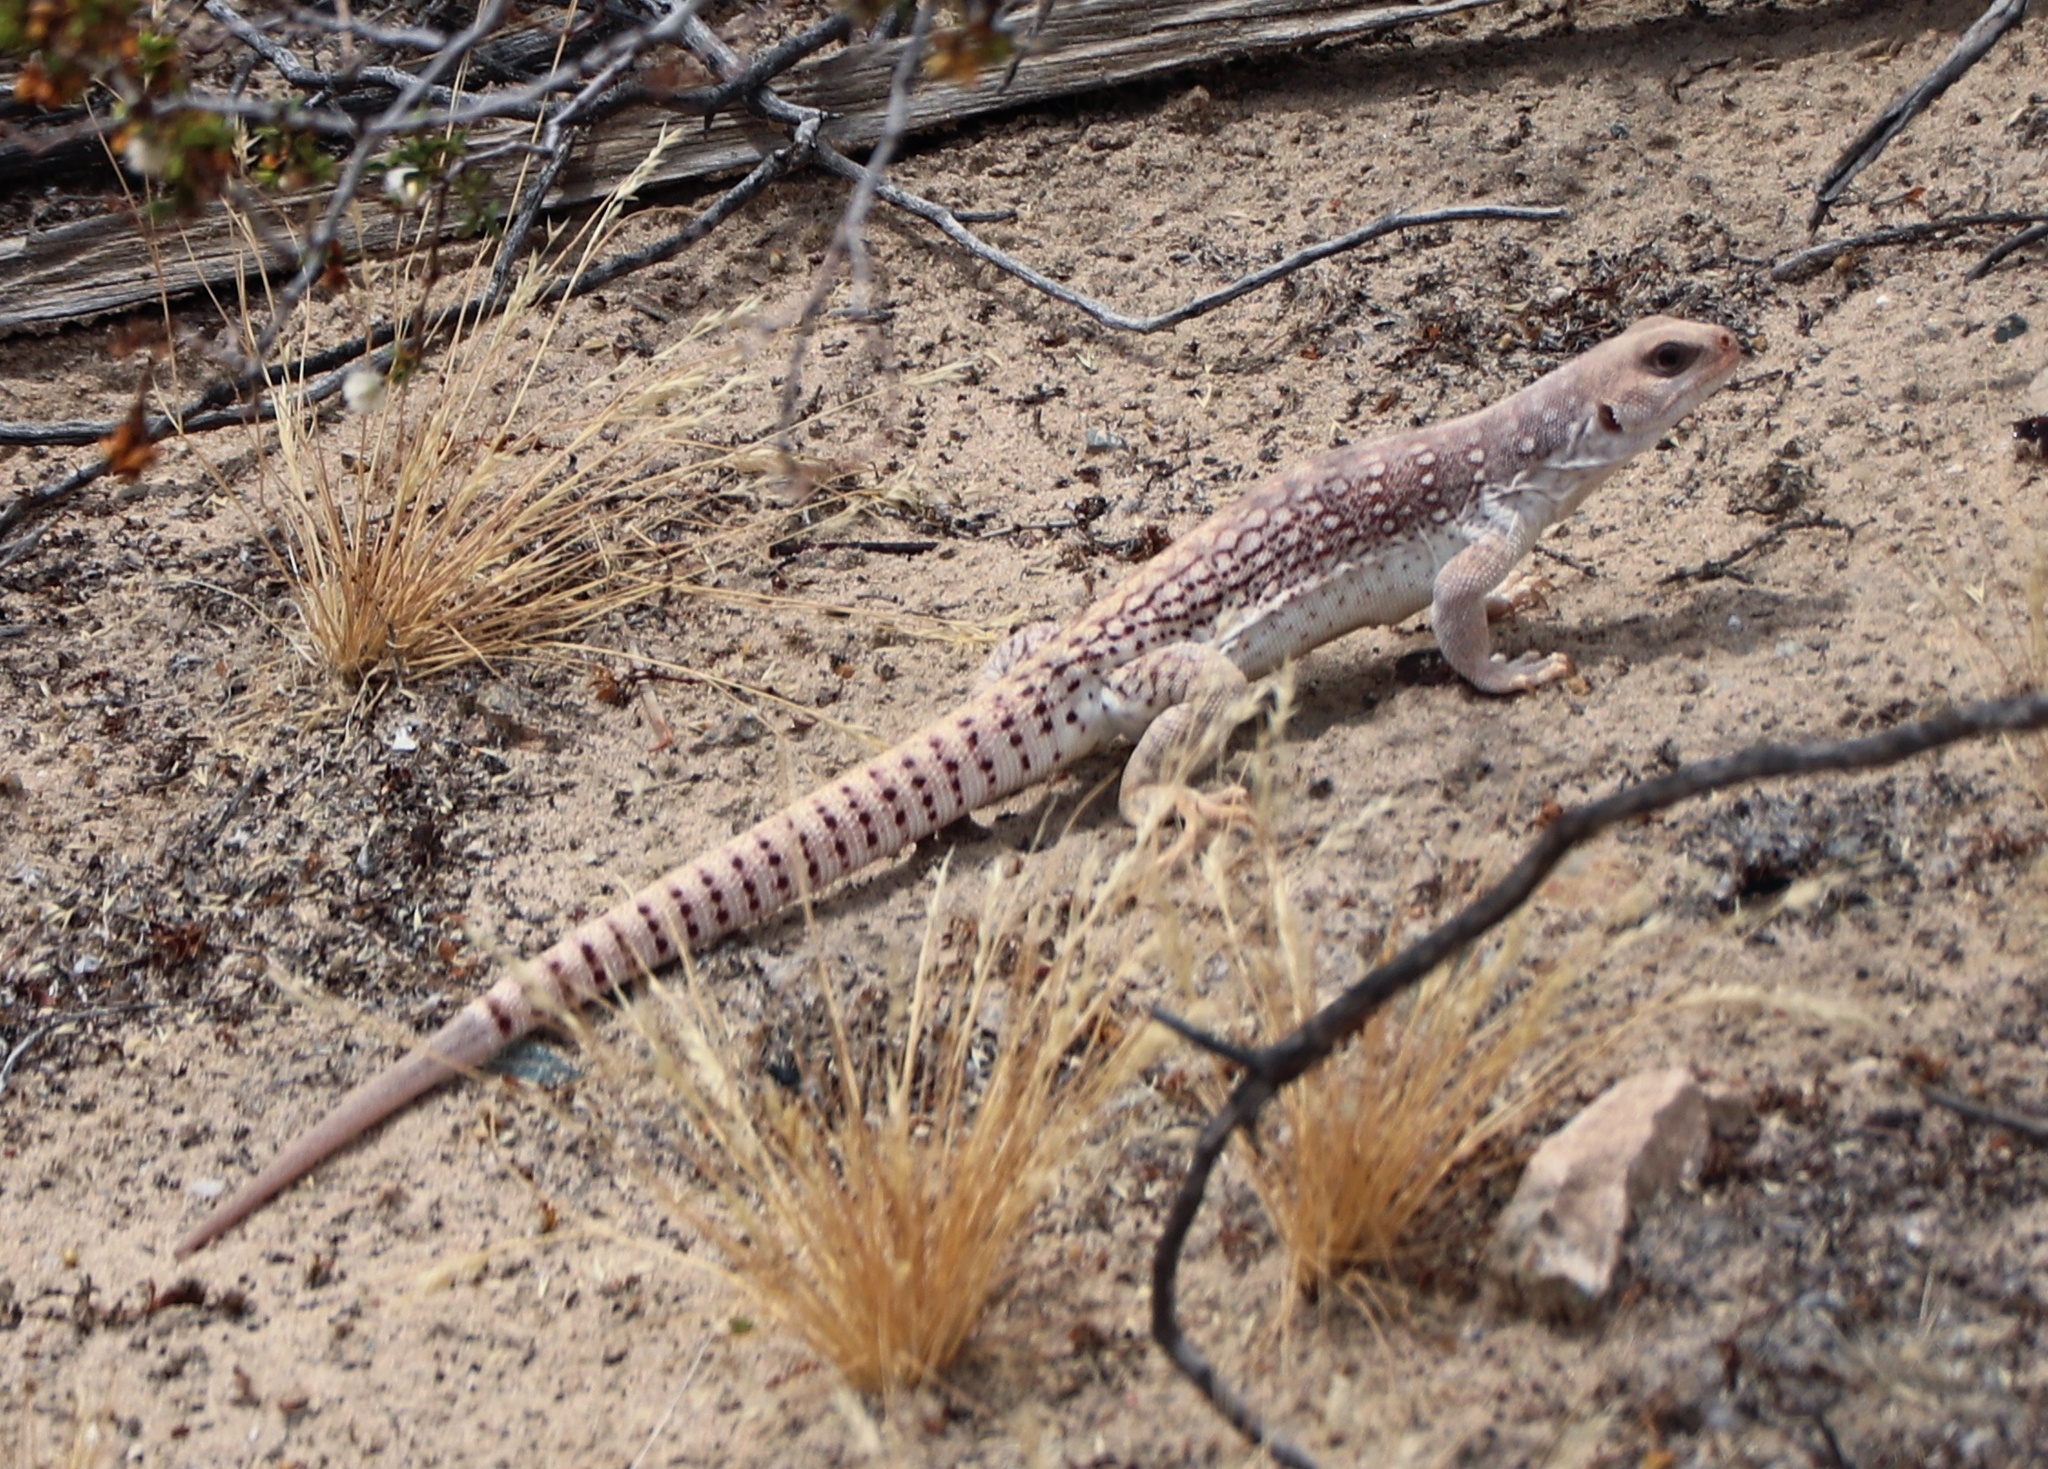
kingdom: Animalia
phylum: Chordata
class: Squamata
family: Iguanidae
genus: Dipsosaurus
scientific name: Dipsosaurus dorsalis
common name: Desert iguana
